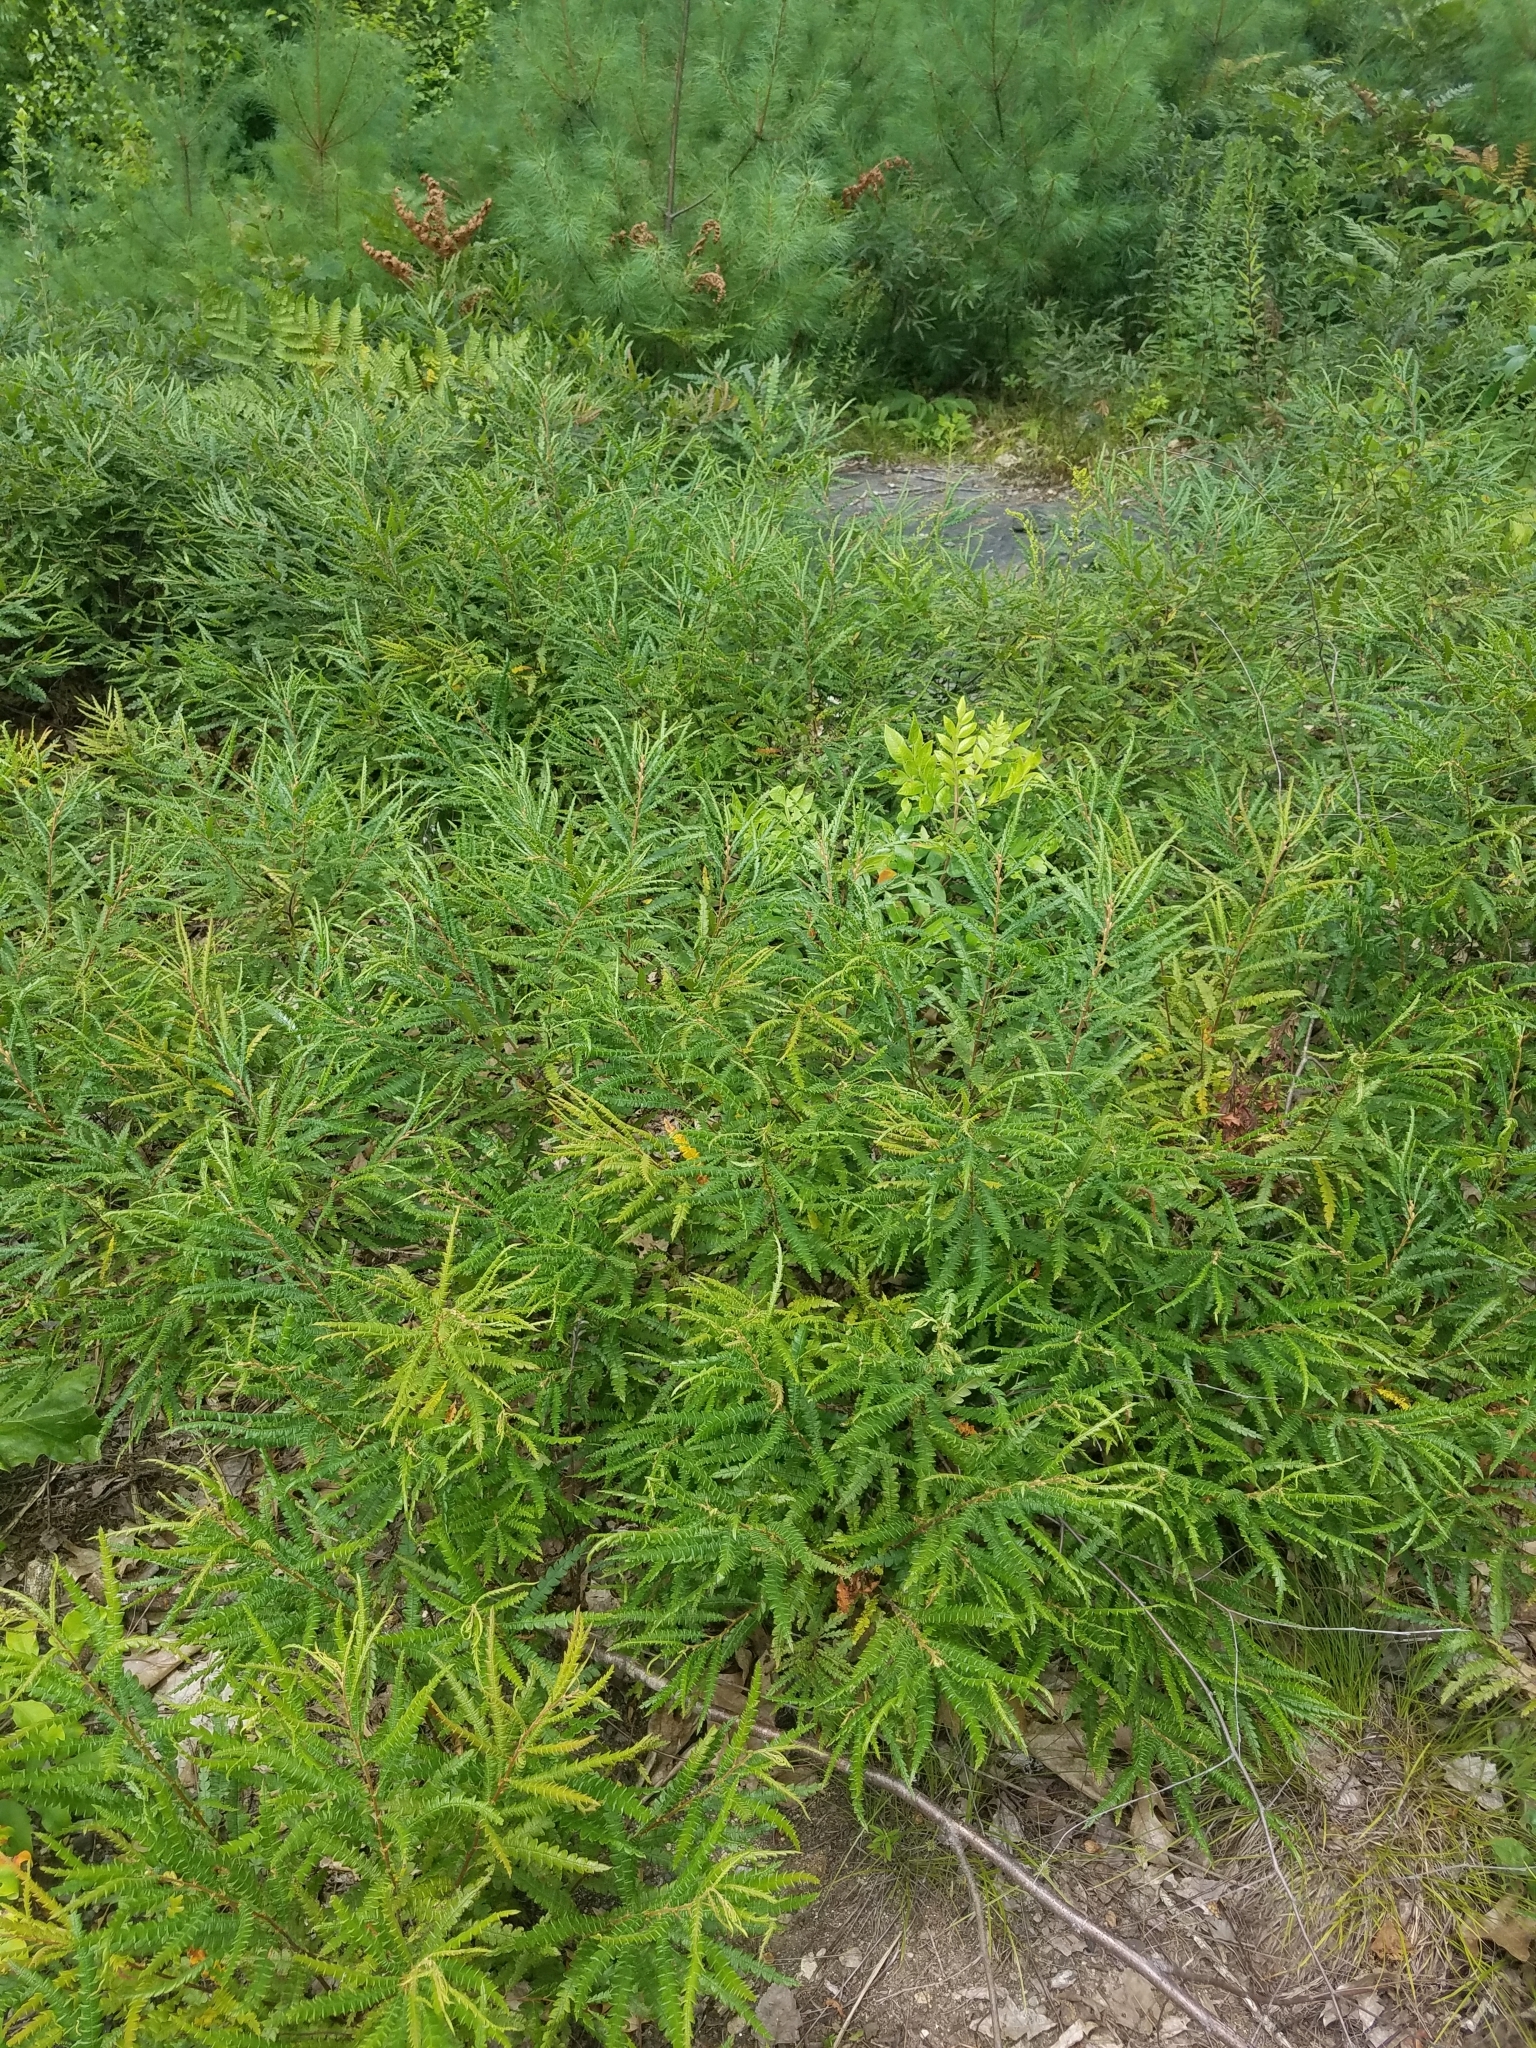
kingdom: Plantae
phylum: Tracheophyta
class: Magnoliopsida
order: Fagales
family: Myricaceae
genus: Comptonia
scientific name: Comptonia peregrina
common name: Sweet-fern
